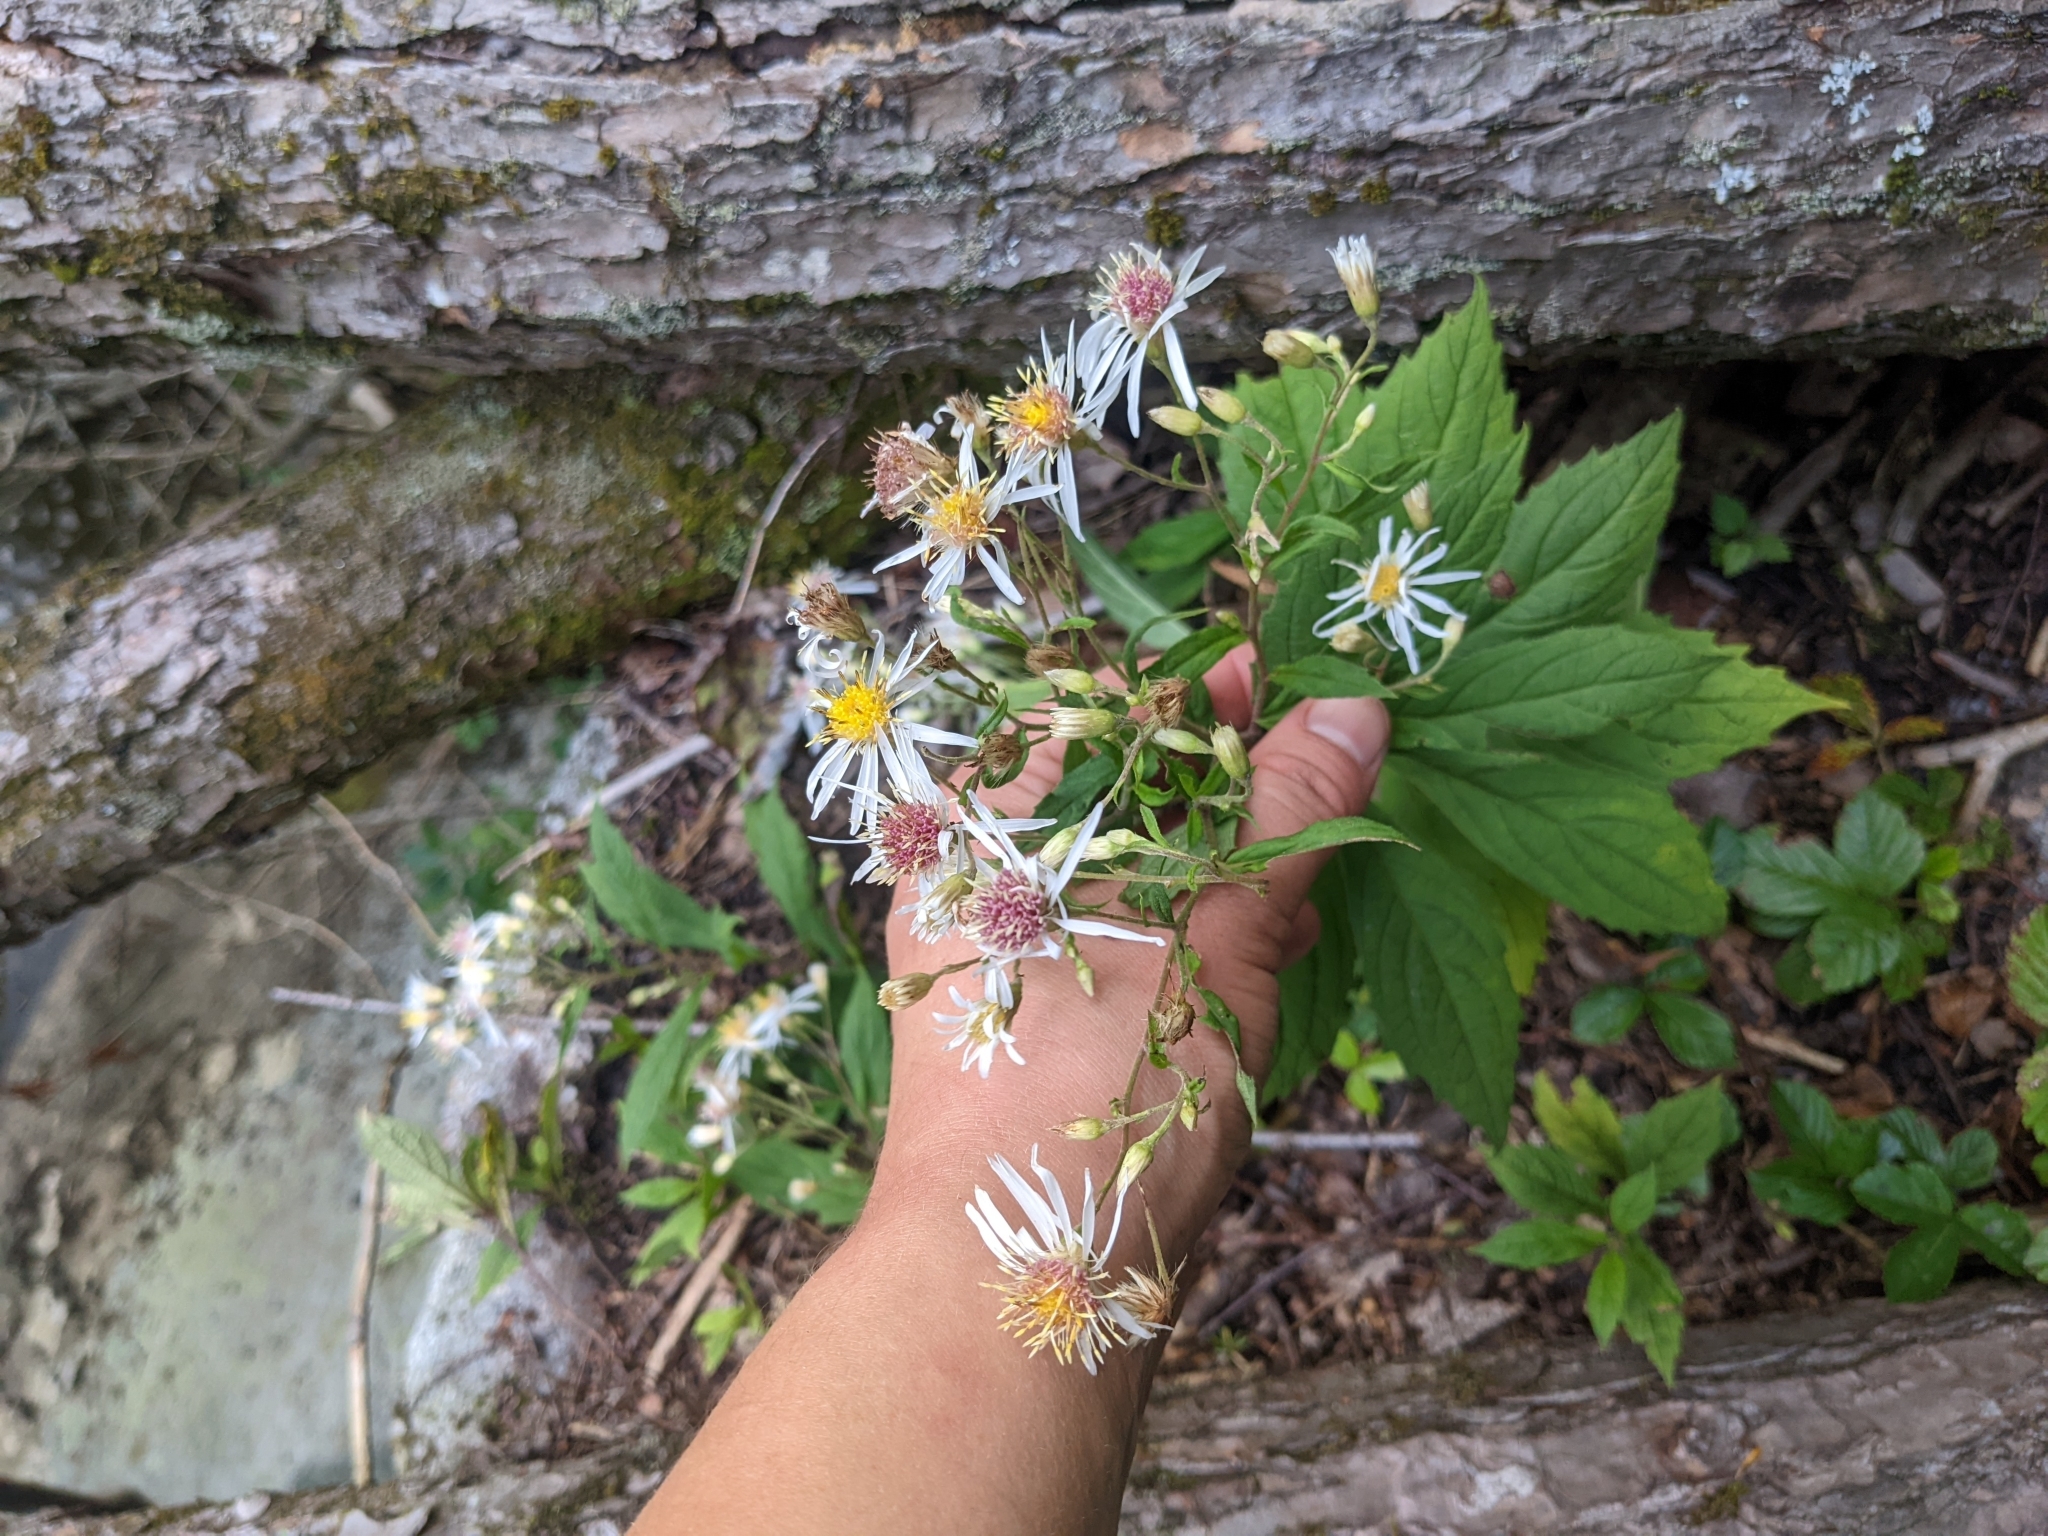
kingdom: Plantae
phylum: Tracheophyta
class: Magnoliopsida
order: Asterales
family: Asteraceae
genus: Eurybia
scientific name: Eurybia divaricata
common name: White wood aster
